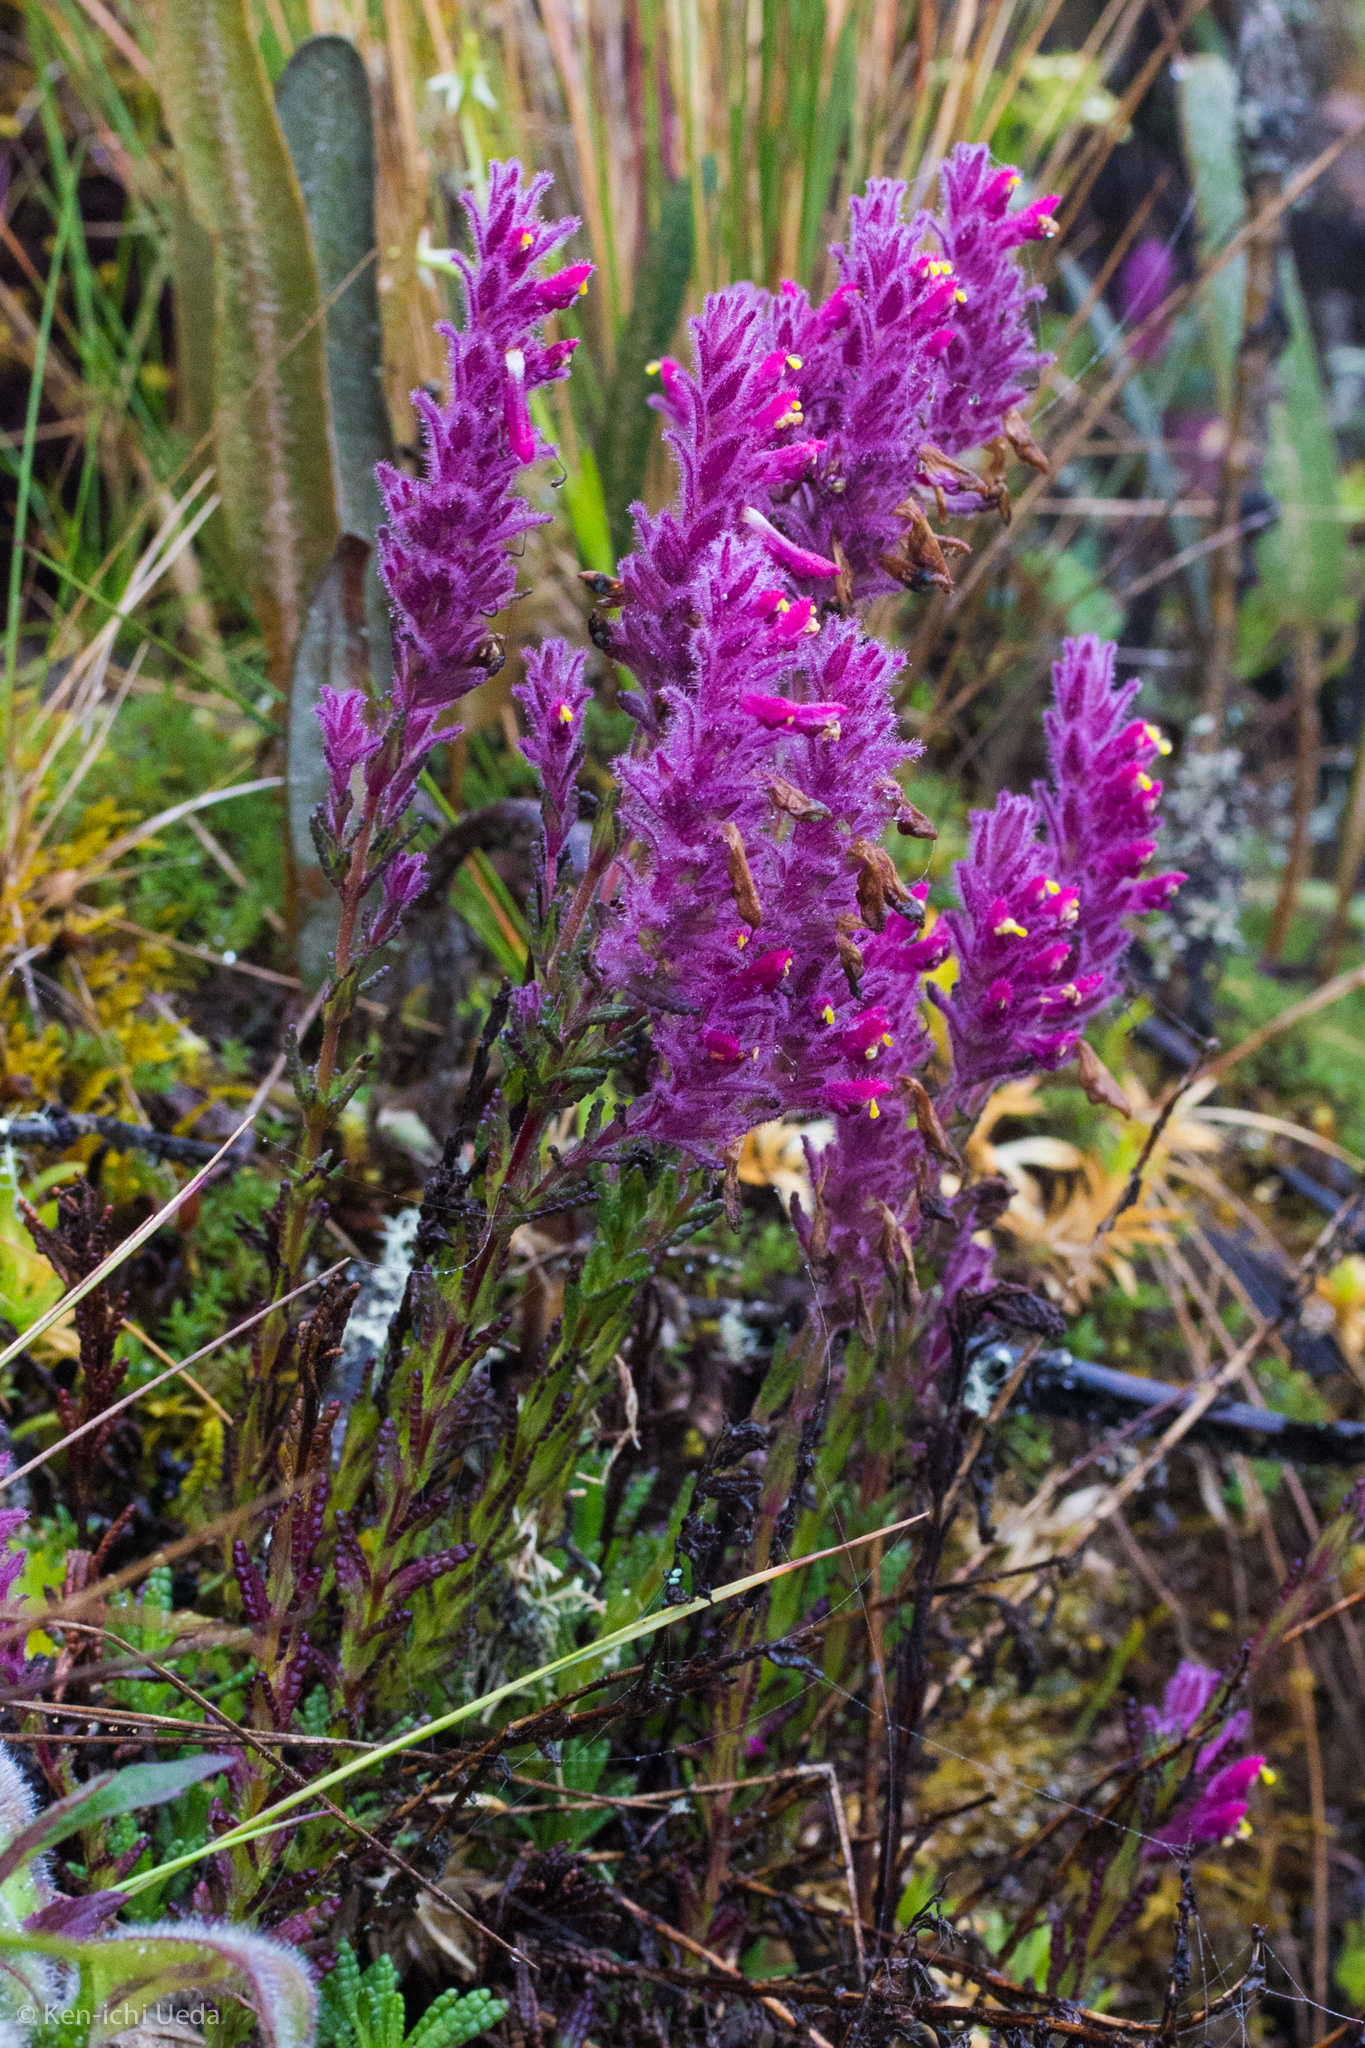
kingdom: Plantae
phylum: Tracheophyta
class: Magnoliopsida
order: Lamiales
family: Orobanchaceae
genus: Neobartsia
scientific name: Neobartsia laniflora
